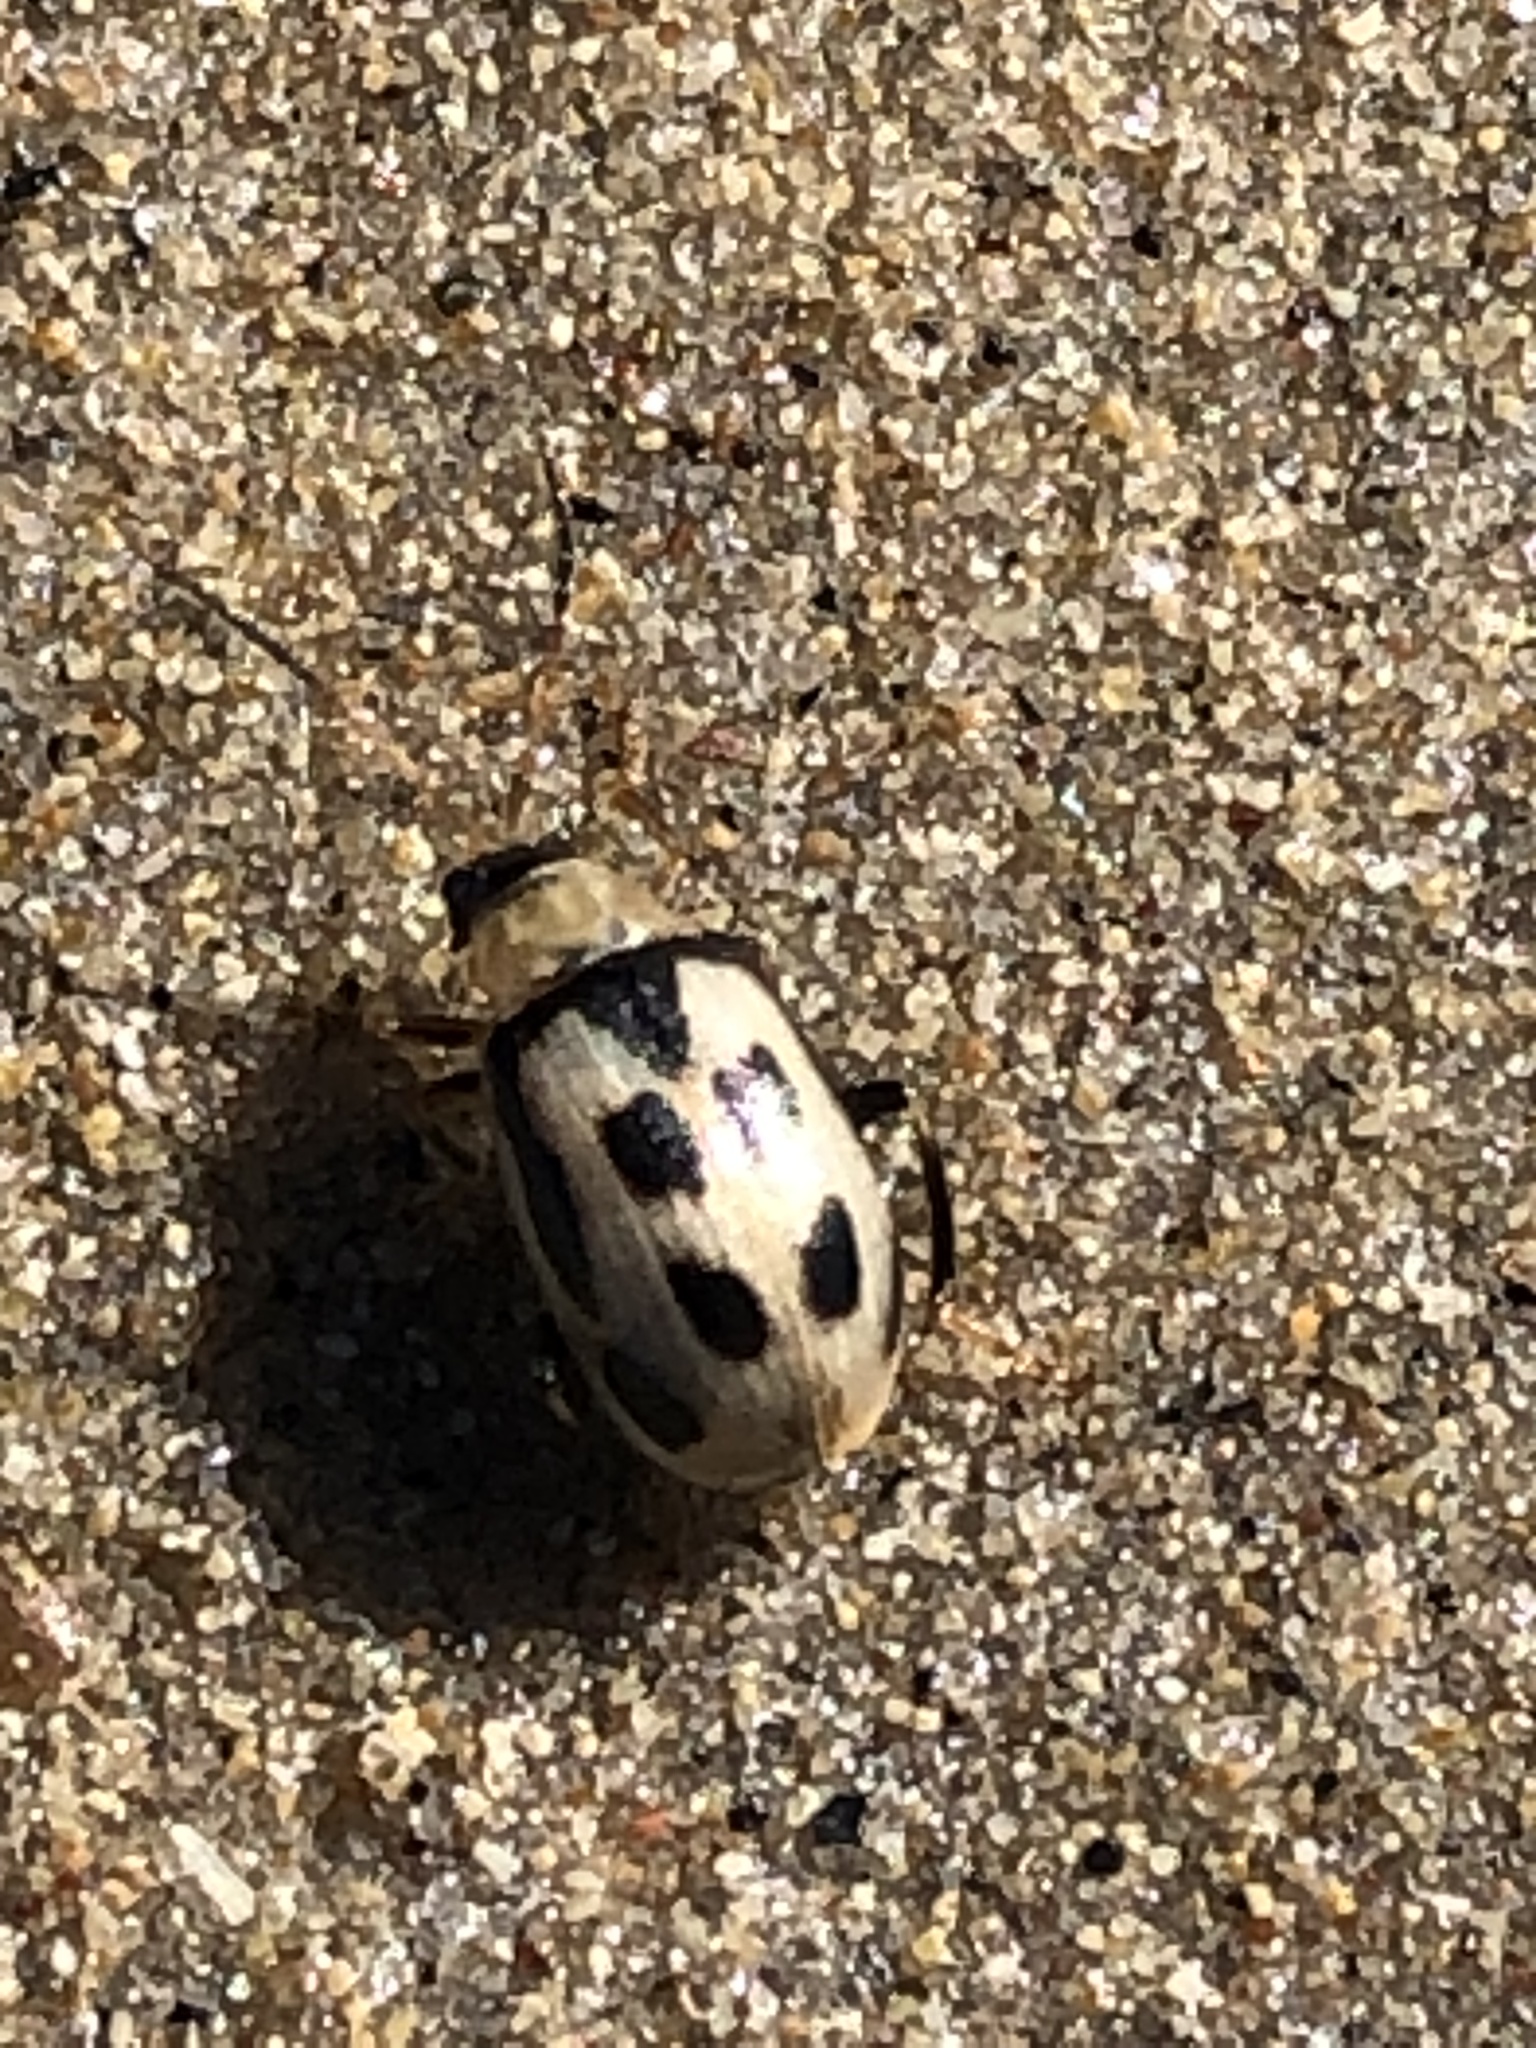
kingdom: Animalia
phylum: Arthropoda
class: Insecta
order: Coleoptera
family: Chrysomelidae
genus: Cerotoma
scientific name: Cerotoma trifurcata
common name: Bean leaf beetle
